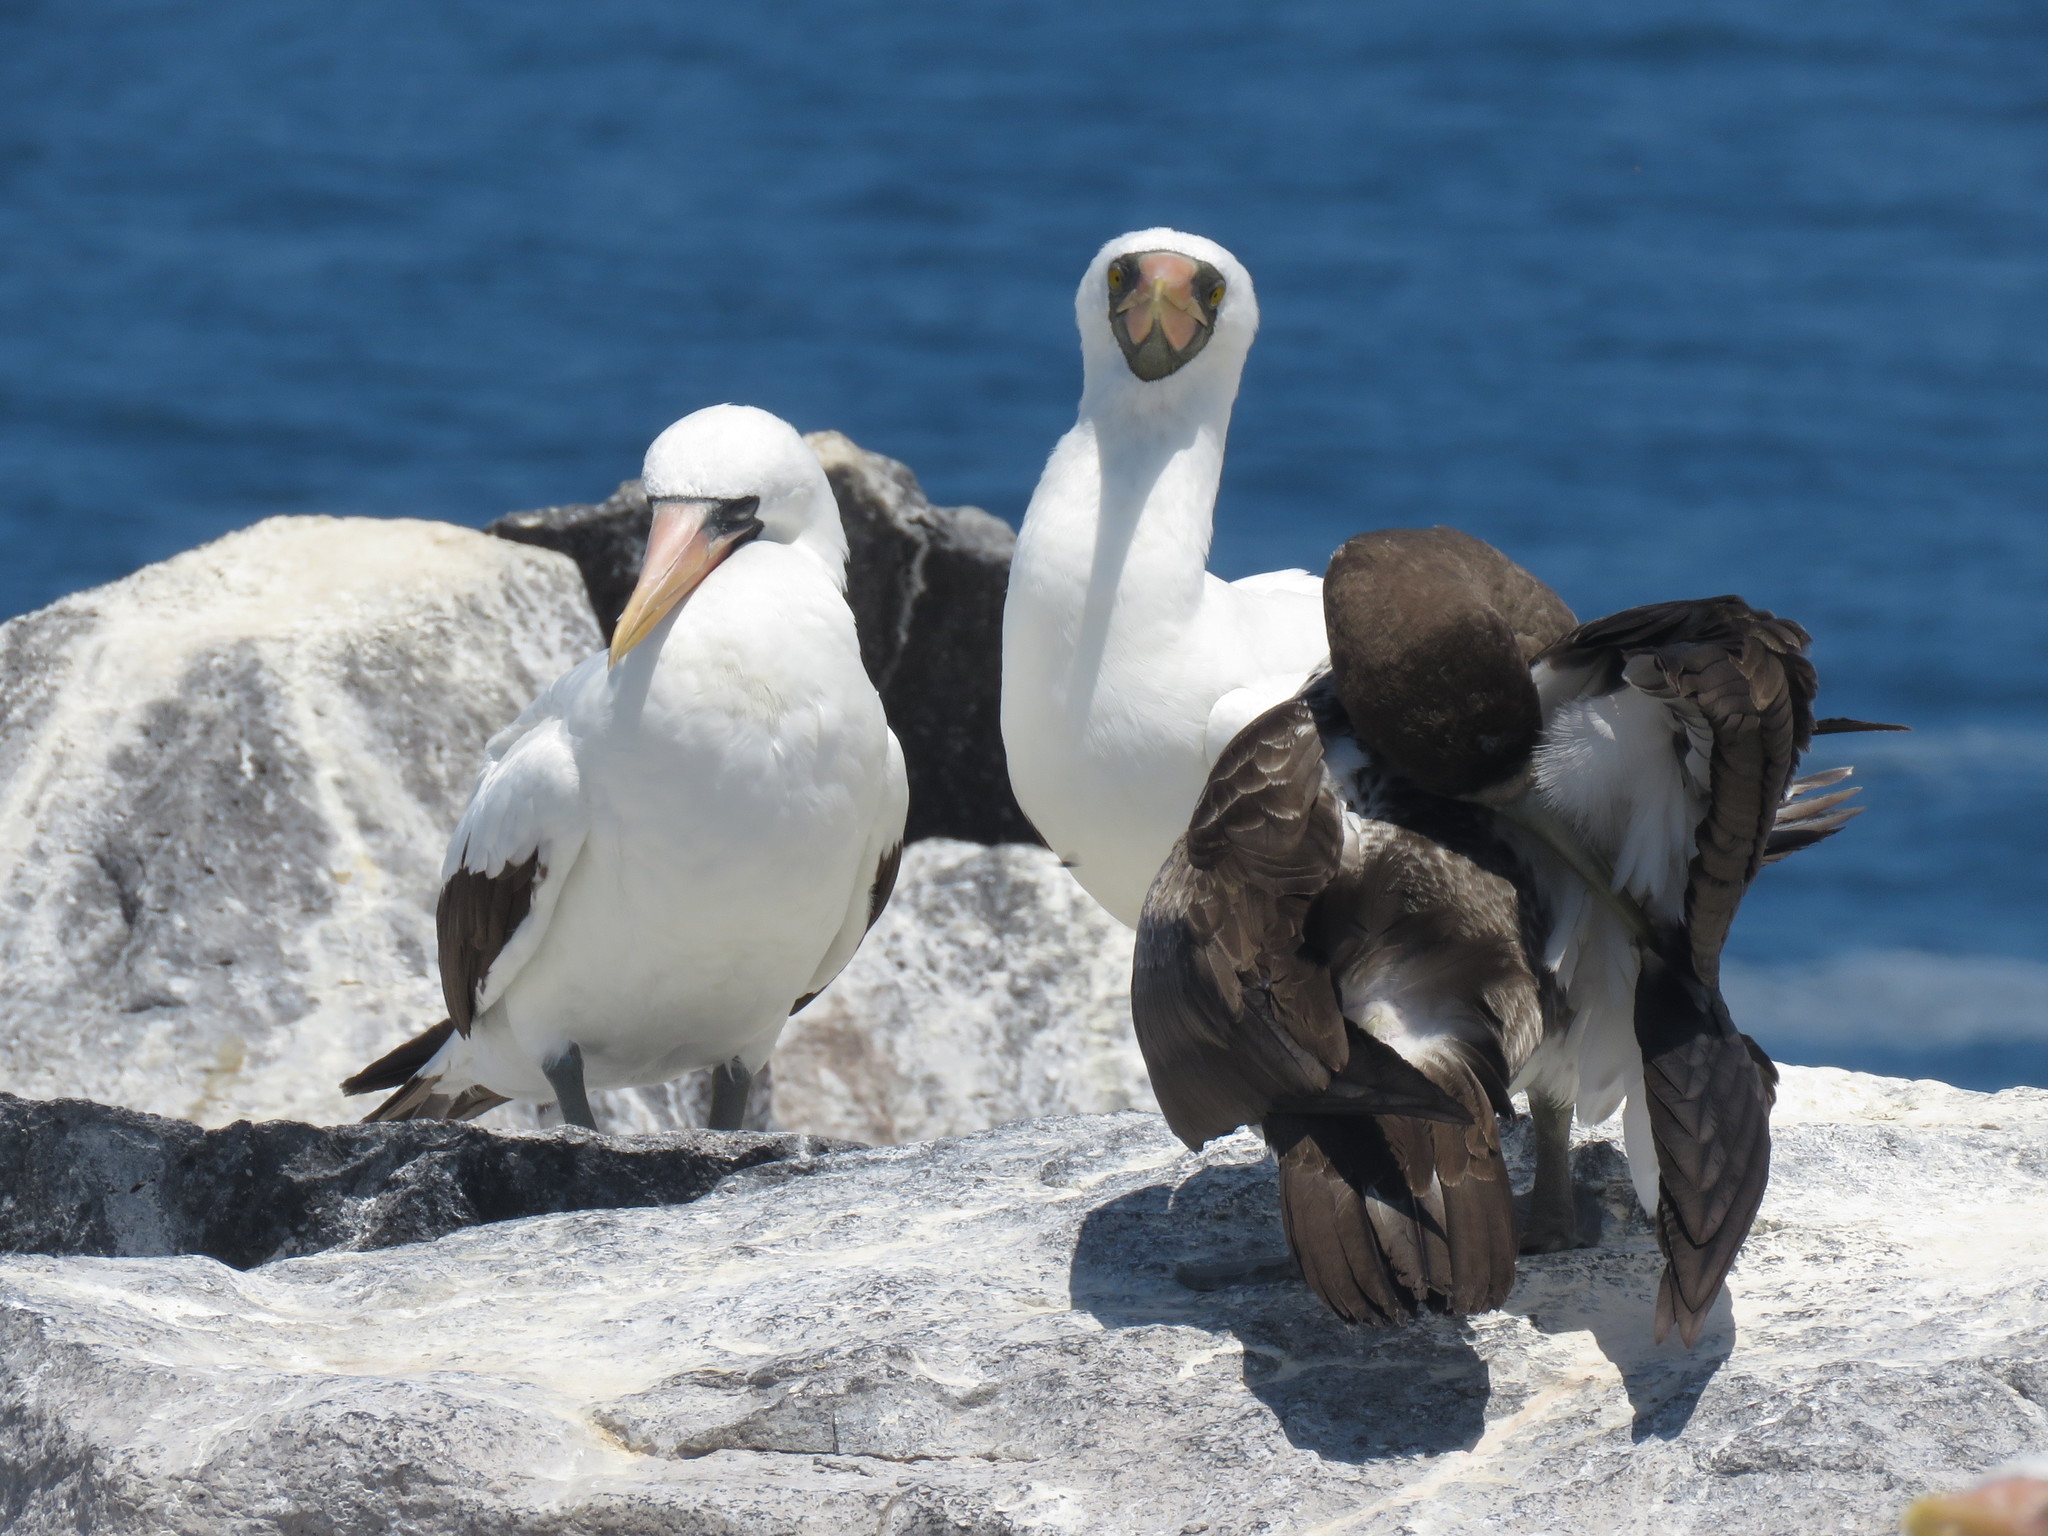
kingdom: Animalia
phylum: Chordata
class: Aves
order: Suliformes
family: Sulidae
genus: Sula
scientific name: Sula granti
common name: Nazca booby
